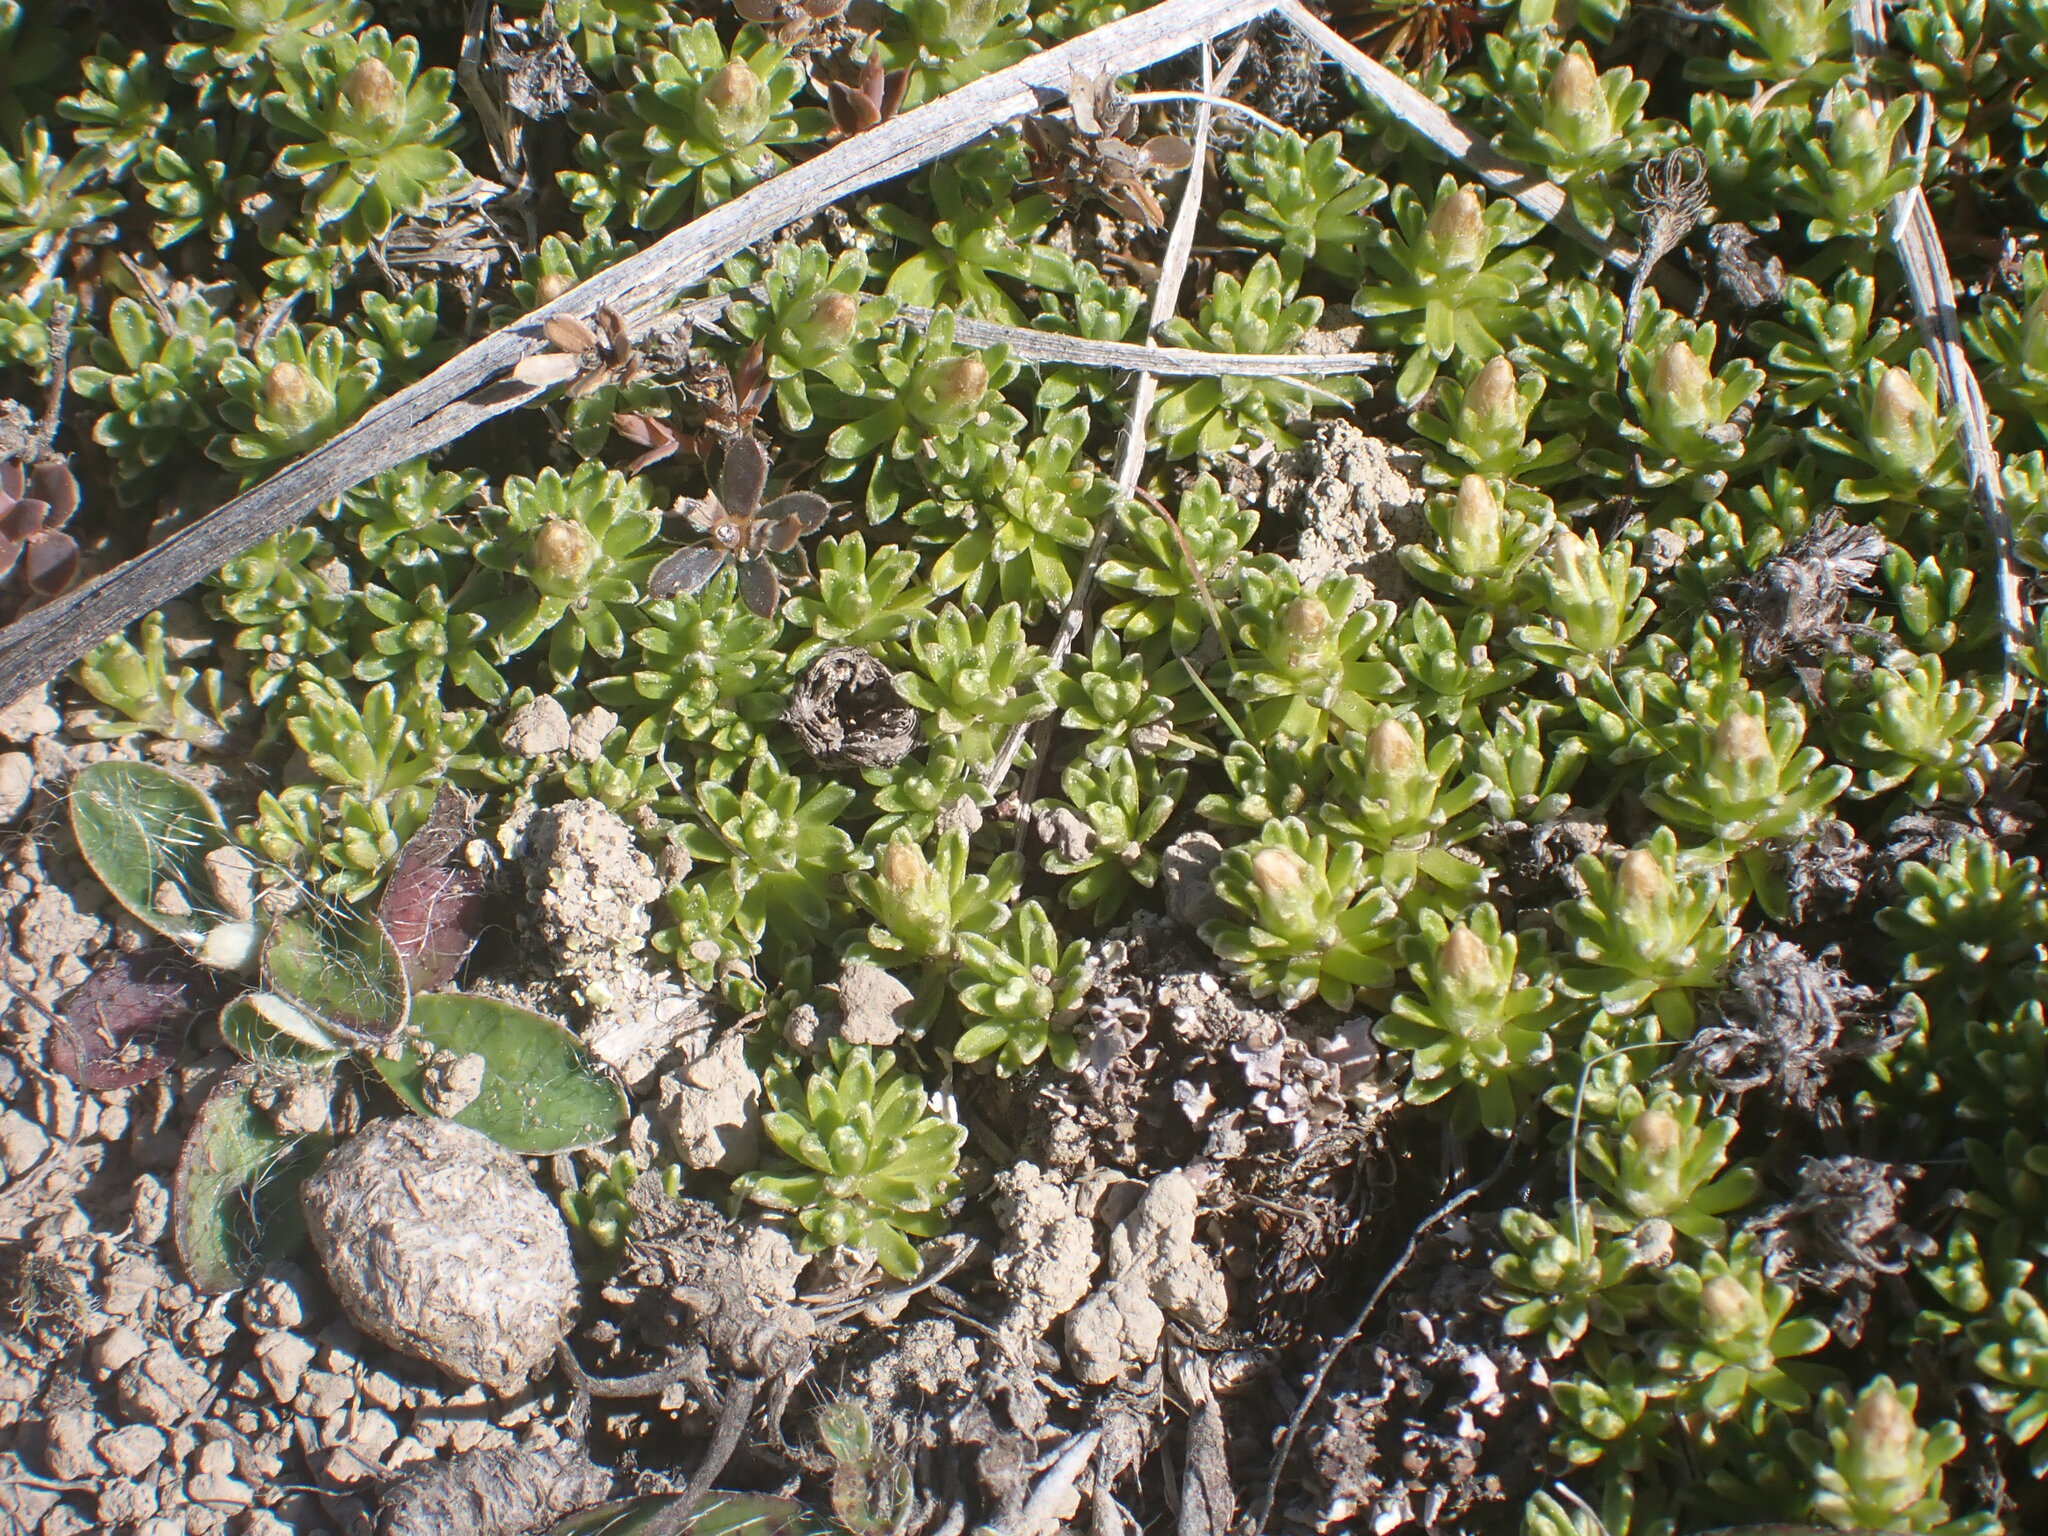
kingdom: Plantae
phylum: Tracheophyta
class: Magnoliopsida
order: Asterales
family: Asteraceae
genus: Raoulia
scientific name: Raoulia subsericea
